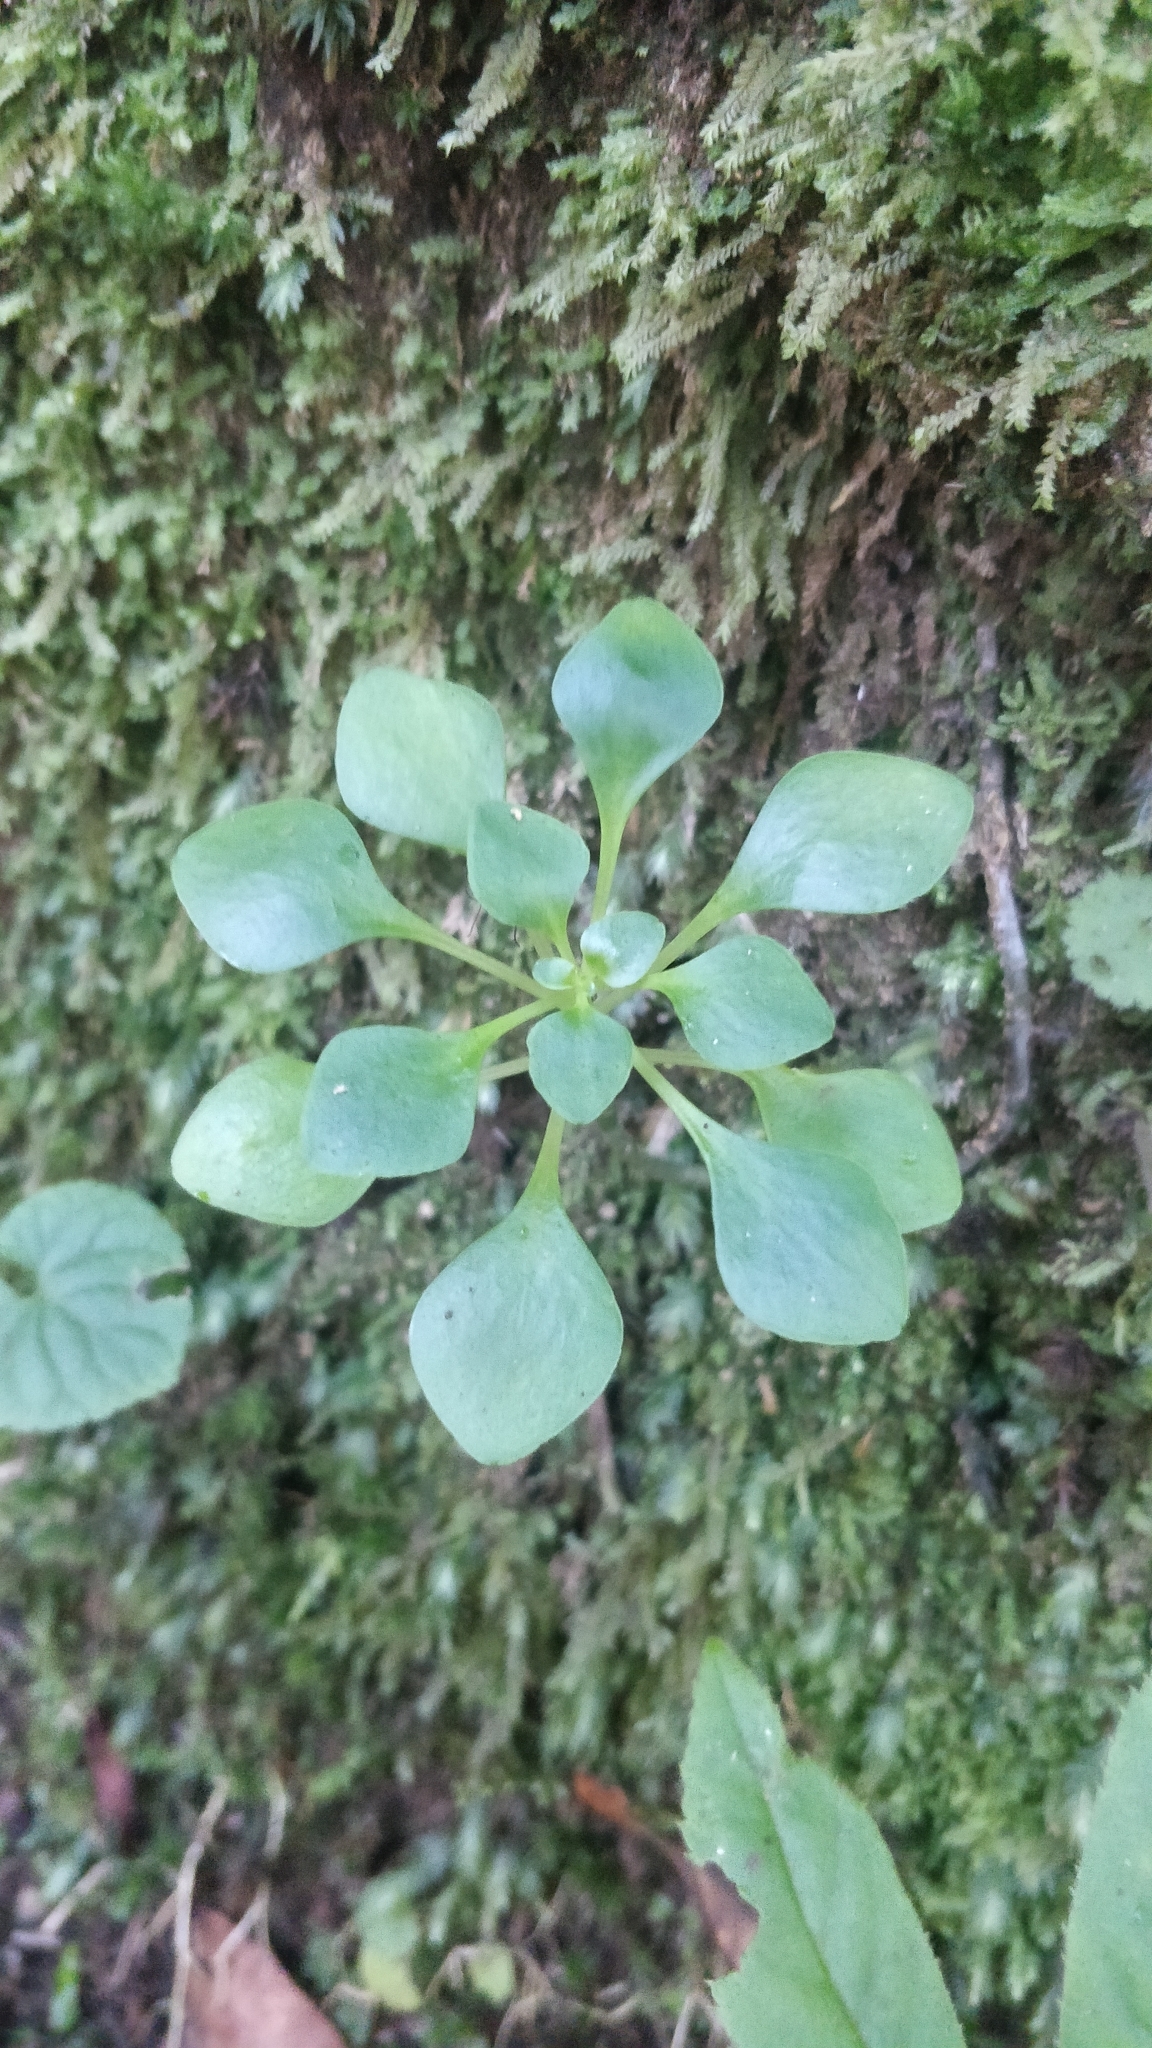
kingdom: Plantae
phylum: Tracheophyta
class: Magnoliopsida
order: Saxifragales
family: Crassulaceae
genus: Aichryson
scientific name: Aichryson divaricatum
